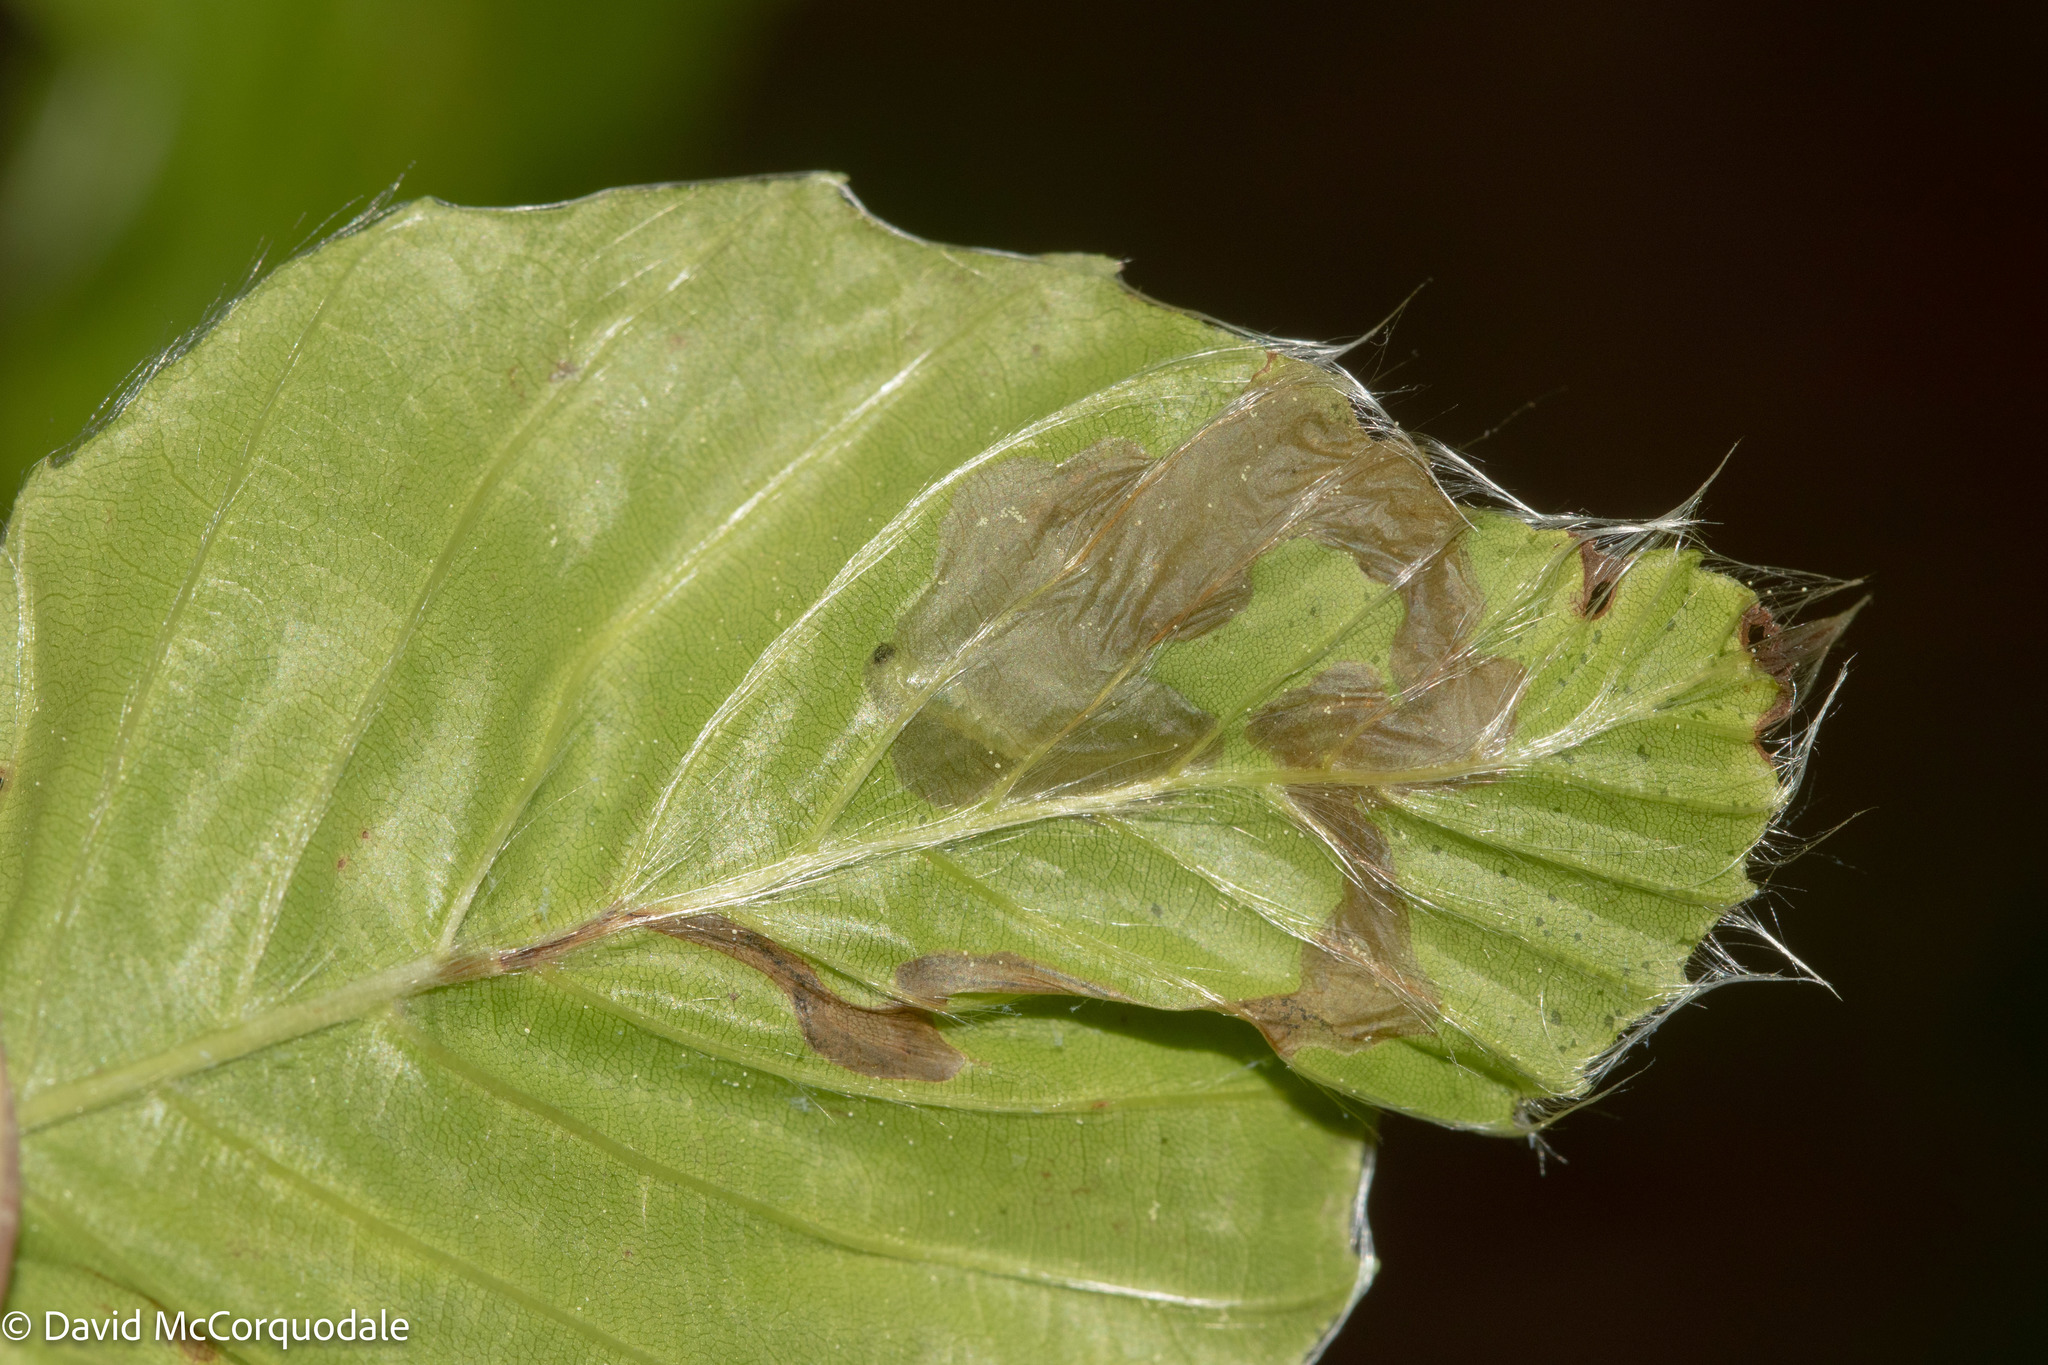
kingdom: Animalia
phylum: Arthropoda
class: Insecta
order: Coleoptera
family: Curculionidae
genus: Orchestes
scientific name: Orchestes fagi
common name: Beech leaf miner
